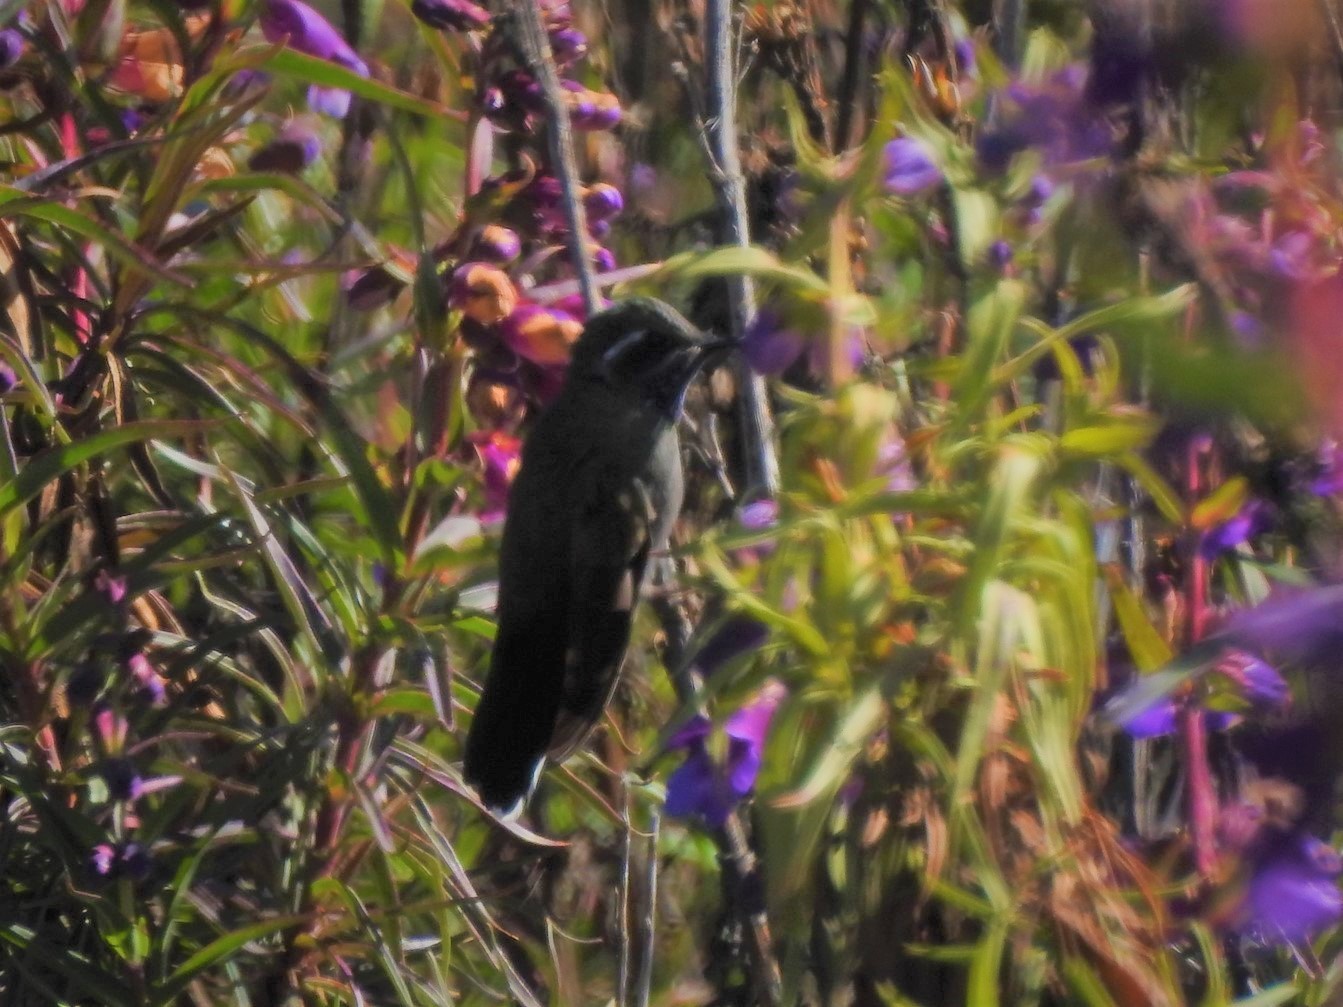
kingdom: Animalia
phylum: Chordata
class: Aves
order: Apodiformes
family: Trochilidae
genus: Lampornis
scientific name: Lampornis clemenciae
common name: Blue-throated mountaingem
